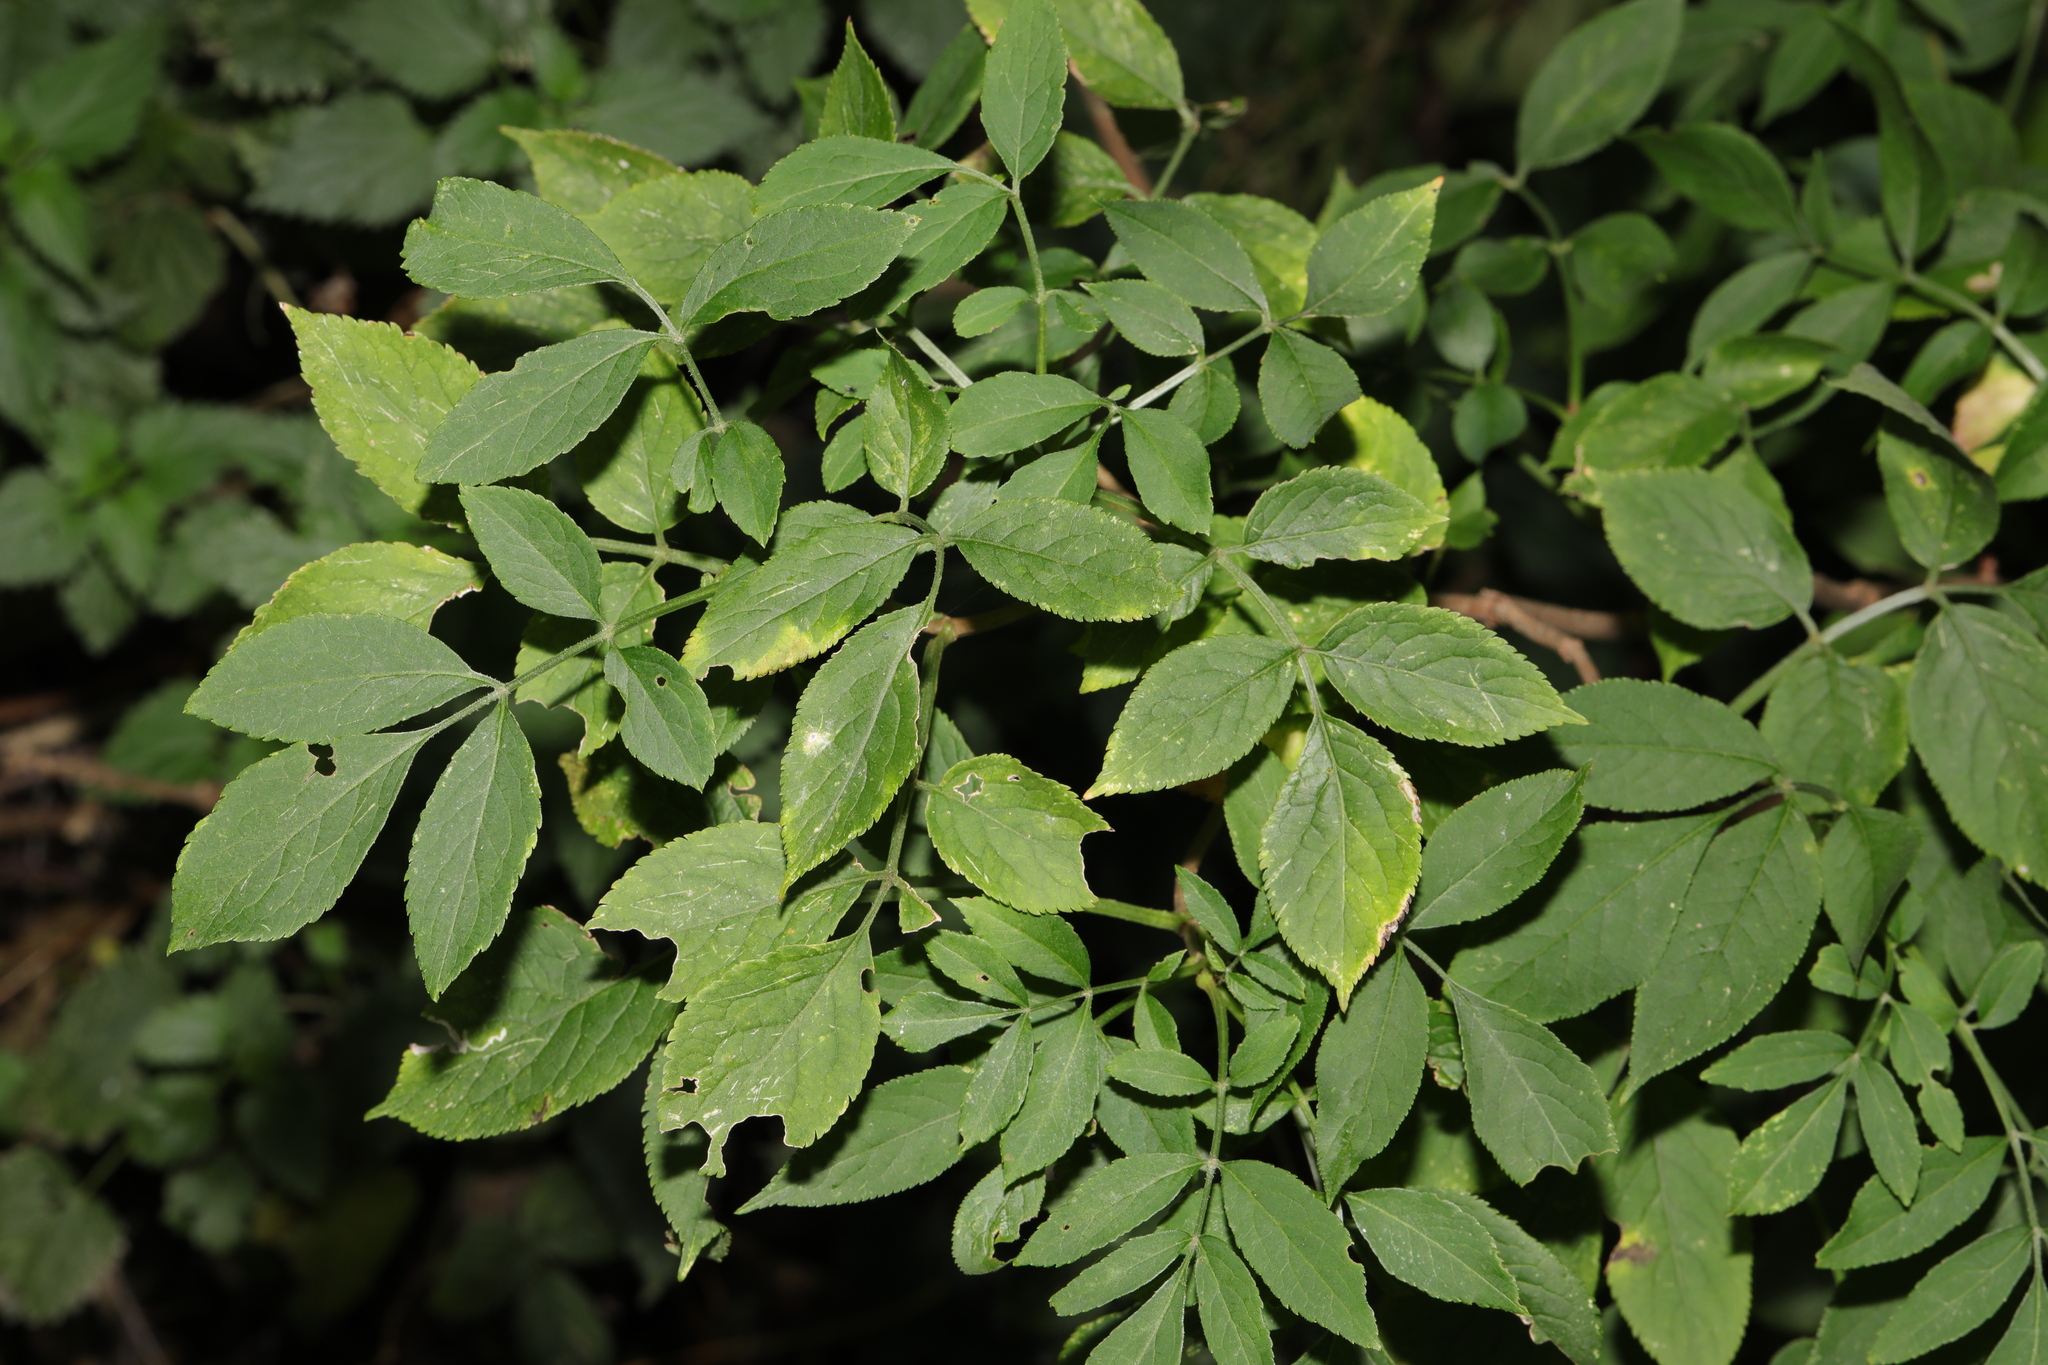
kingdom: Plantae
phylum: Tracheophyta
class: Magnoliopsida
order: Dipsacales
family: Viburnaceae
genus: Sambucus
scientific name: Sambucus nigra
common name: Elder
